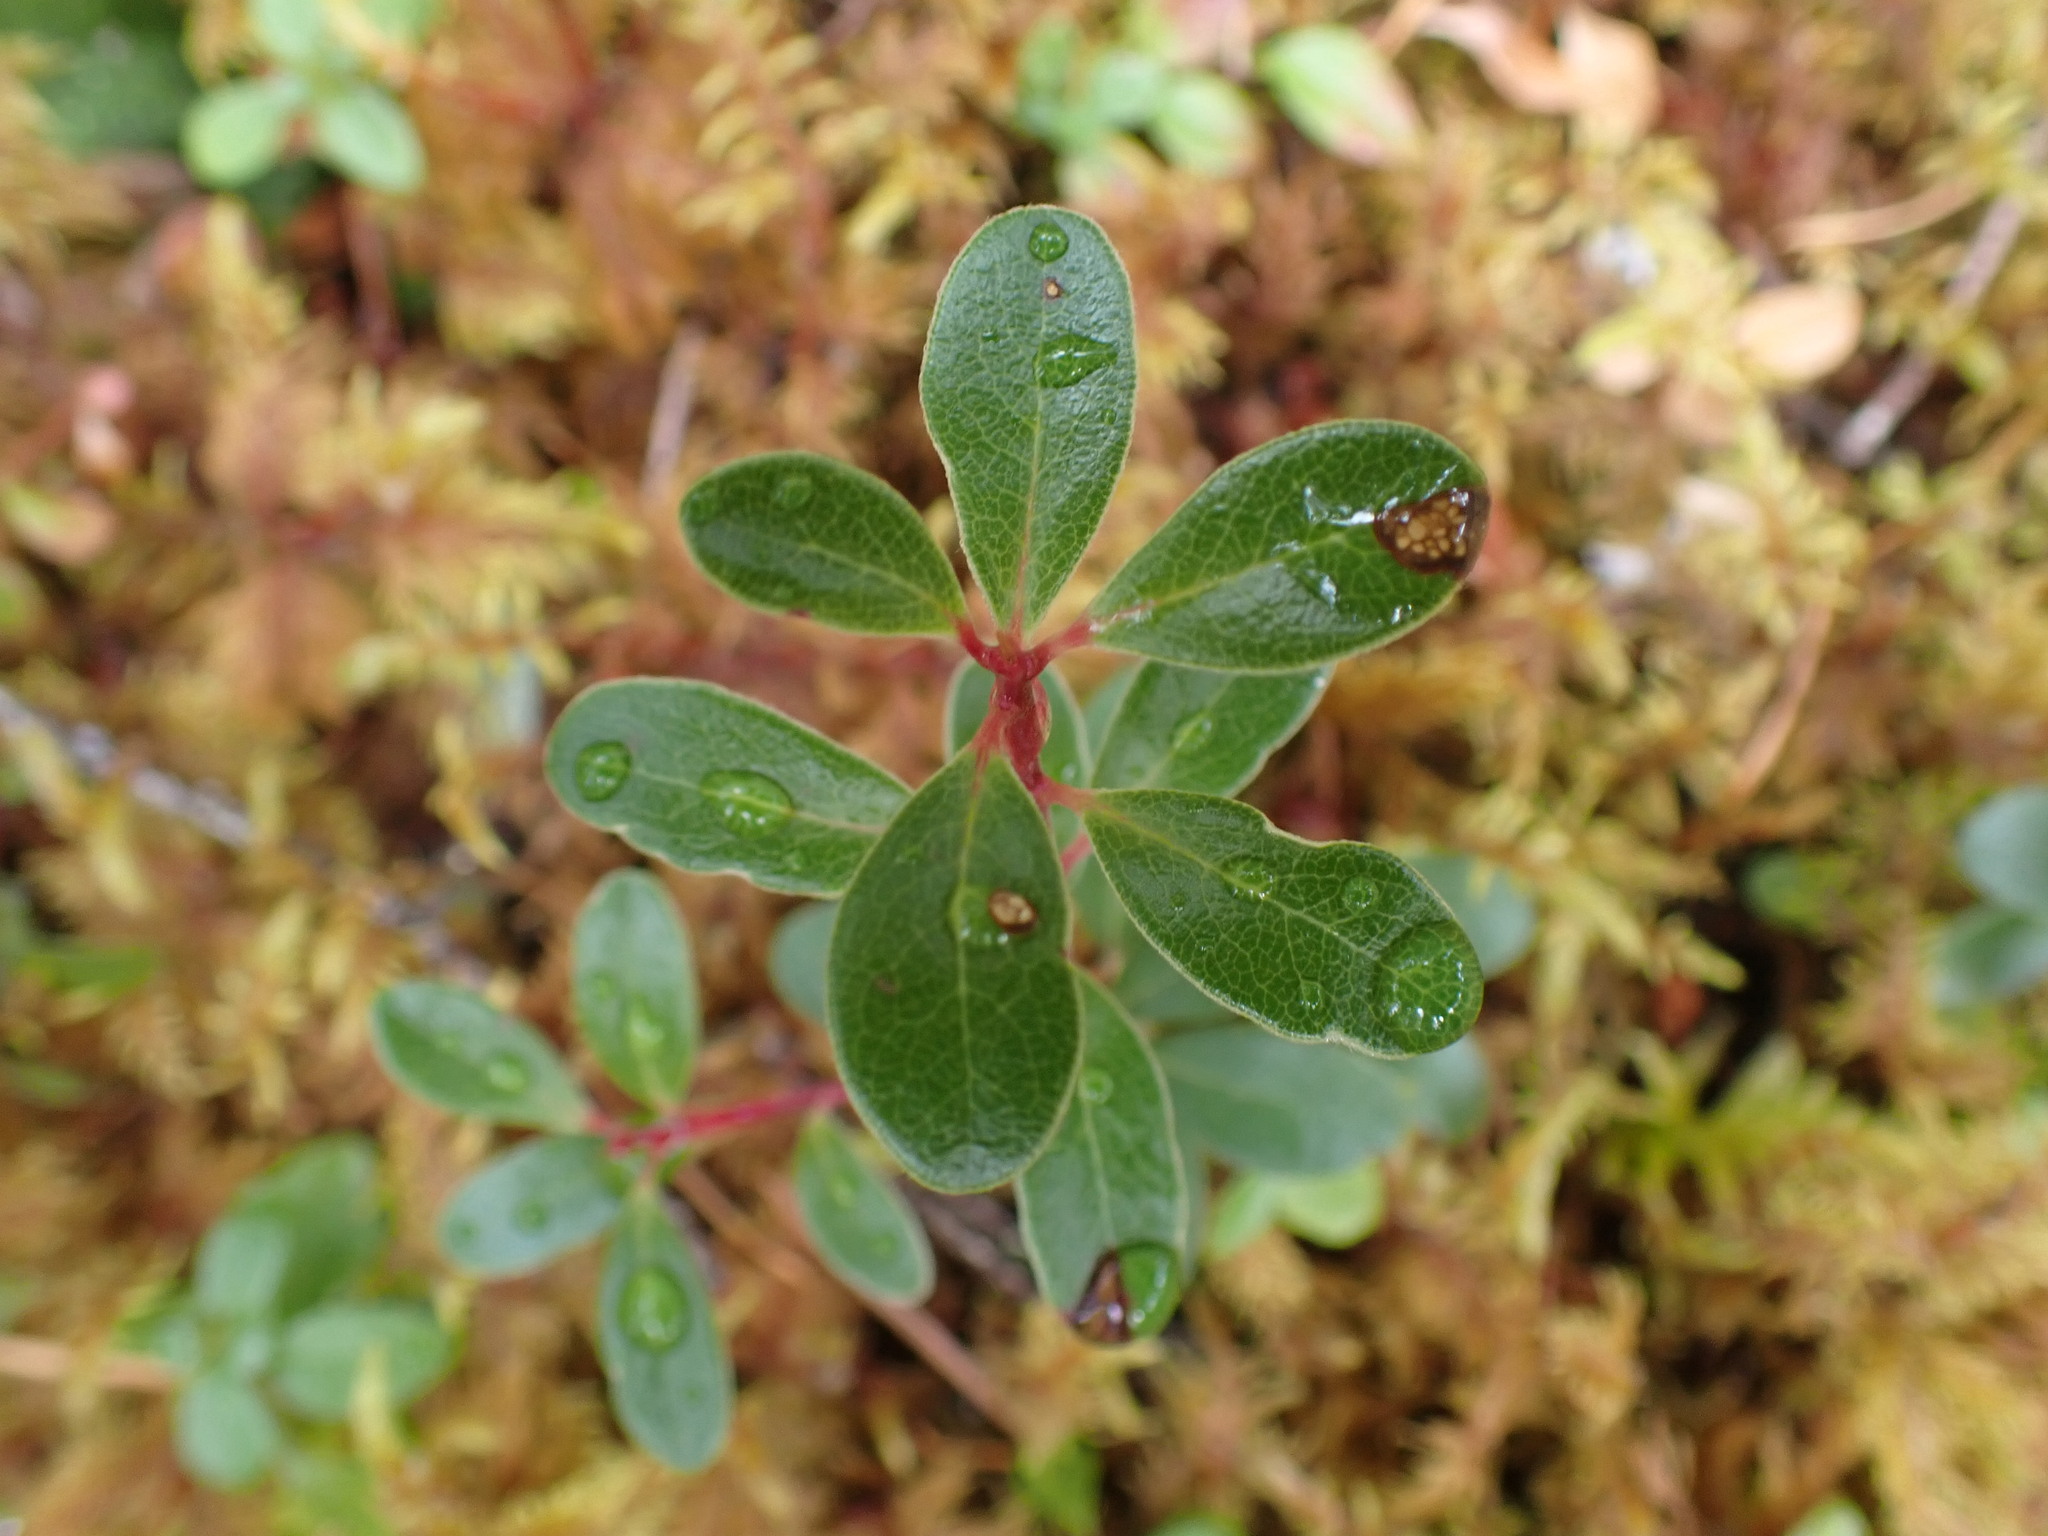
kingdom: Plantae
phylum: Tracheophyta
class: Magnoliopsida
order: Ericales
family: Ericaceae
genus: Arctostaphylos
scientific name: Arctostaphylos uva-ursi
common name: Bearberry
